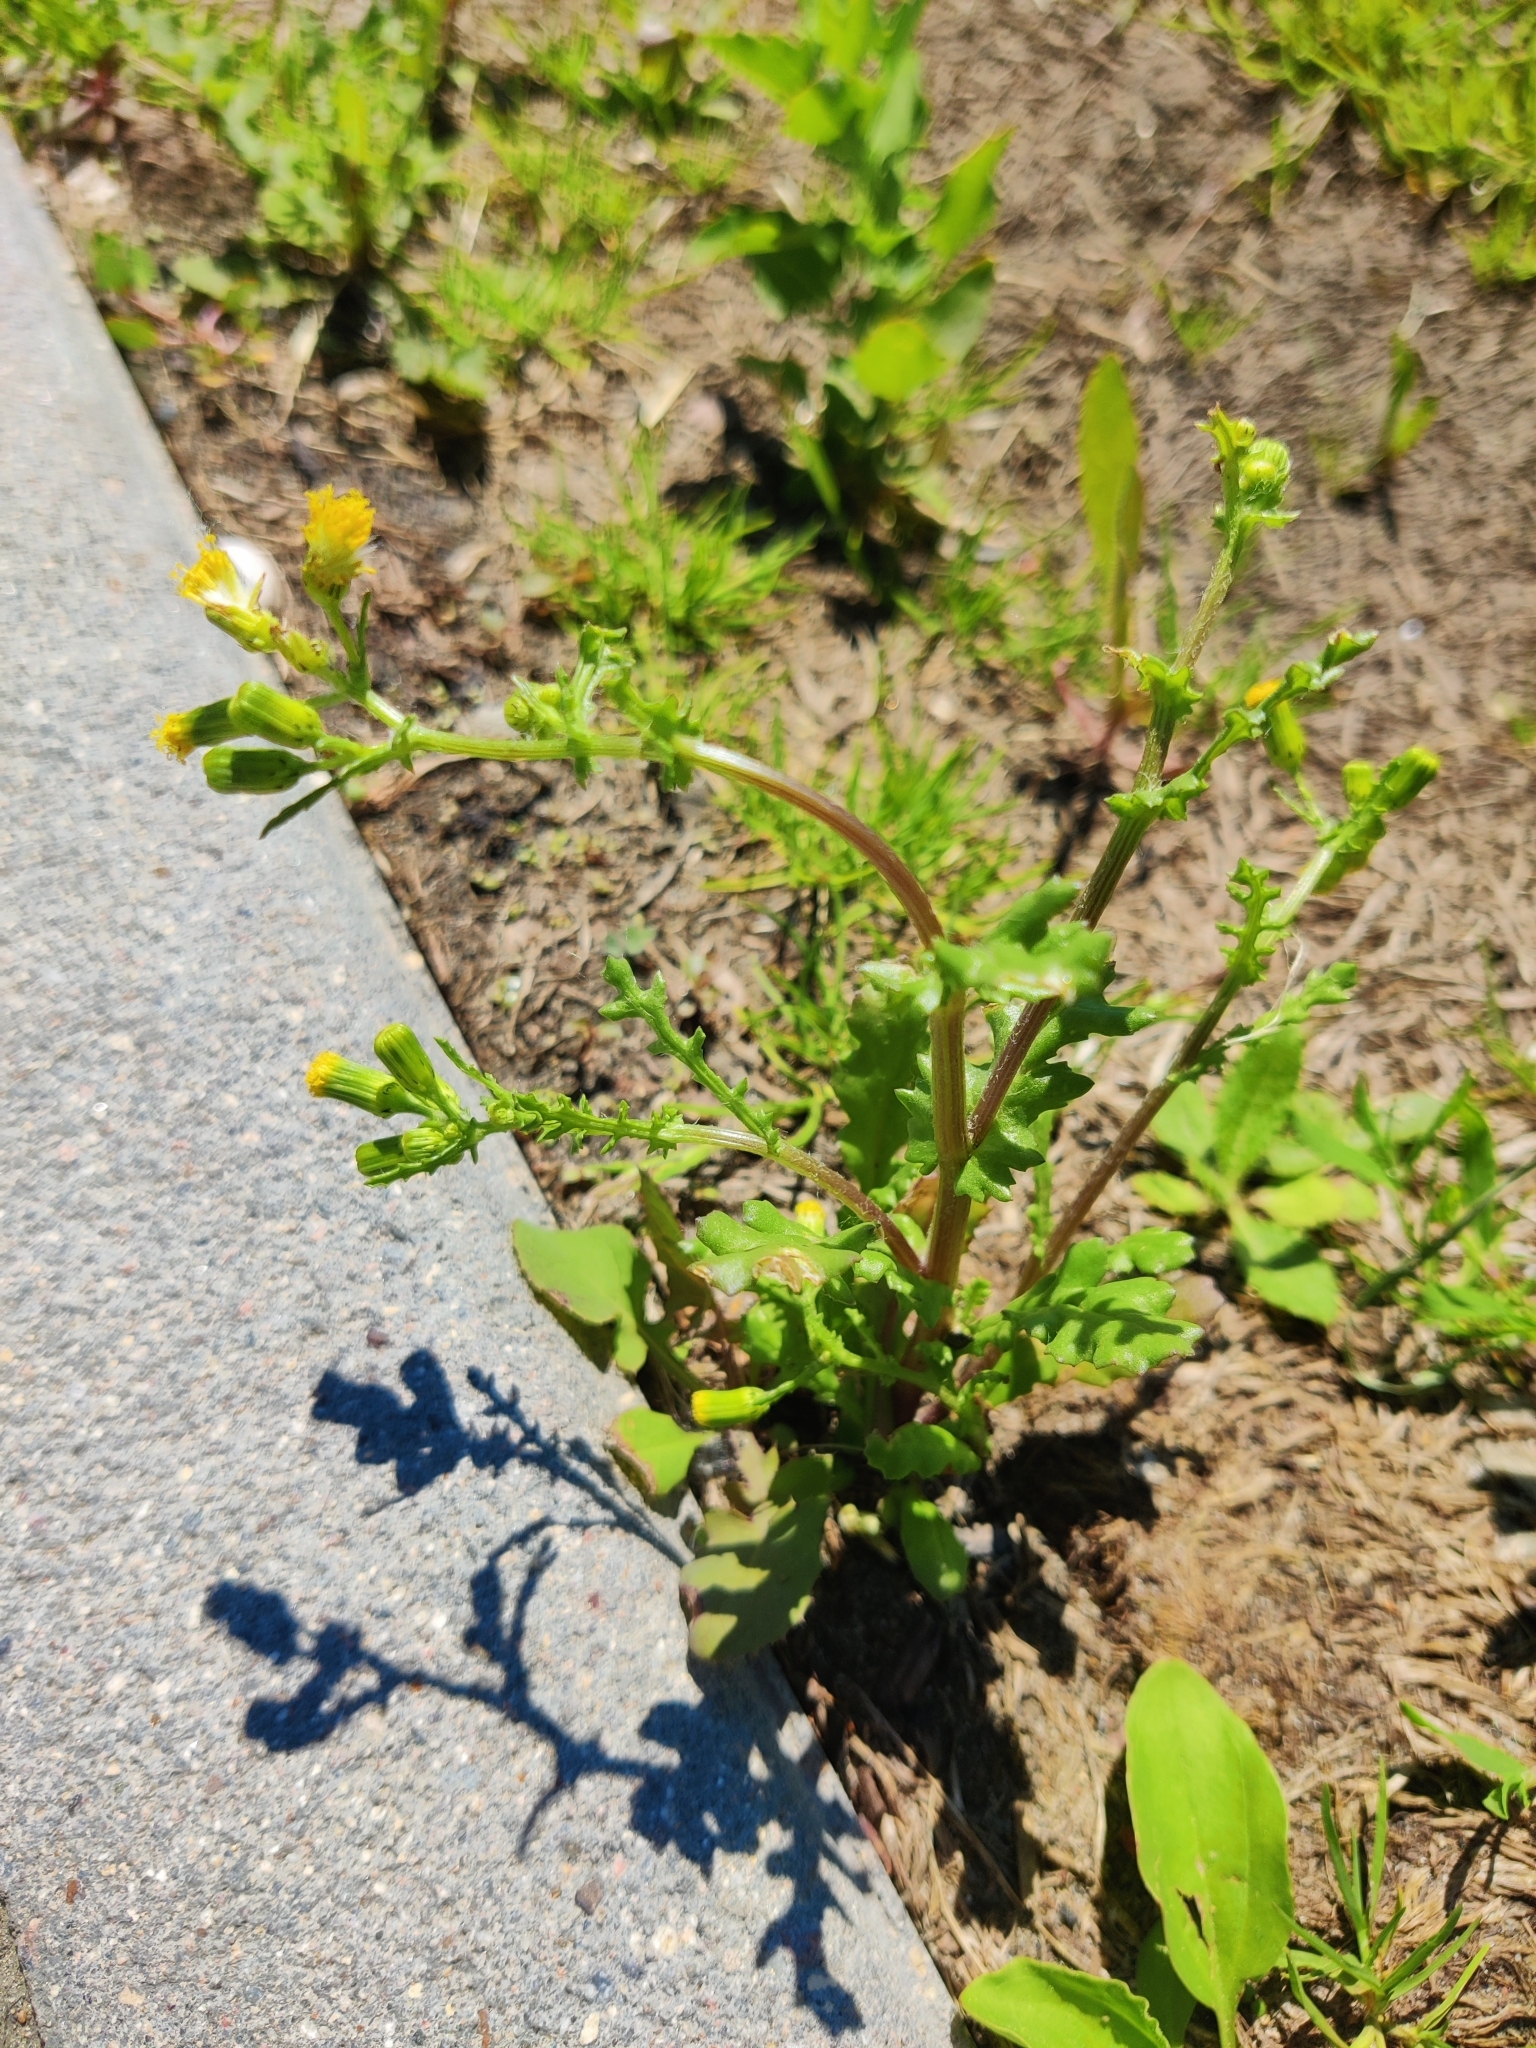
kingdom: Plantae
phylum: Tracheophyta
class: Magnoliopsida
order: Asterales
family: Asteraceae
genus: Senecio
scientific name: Senecio vulgaris
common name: Old-man-in-the-spring
